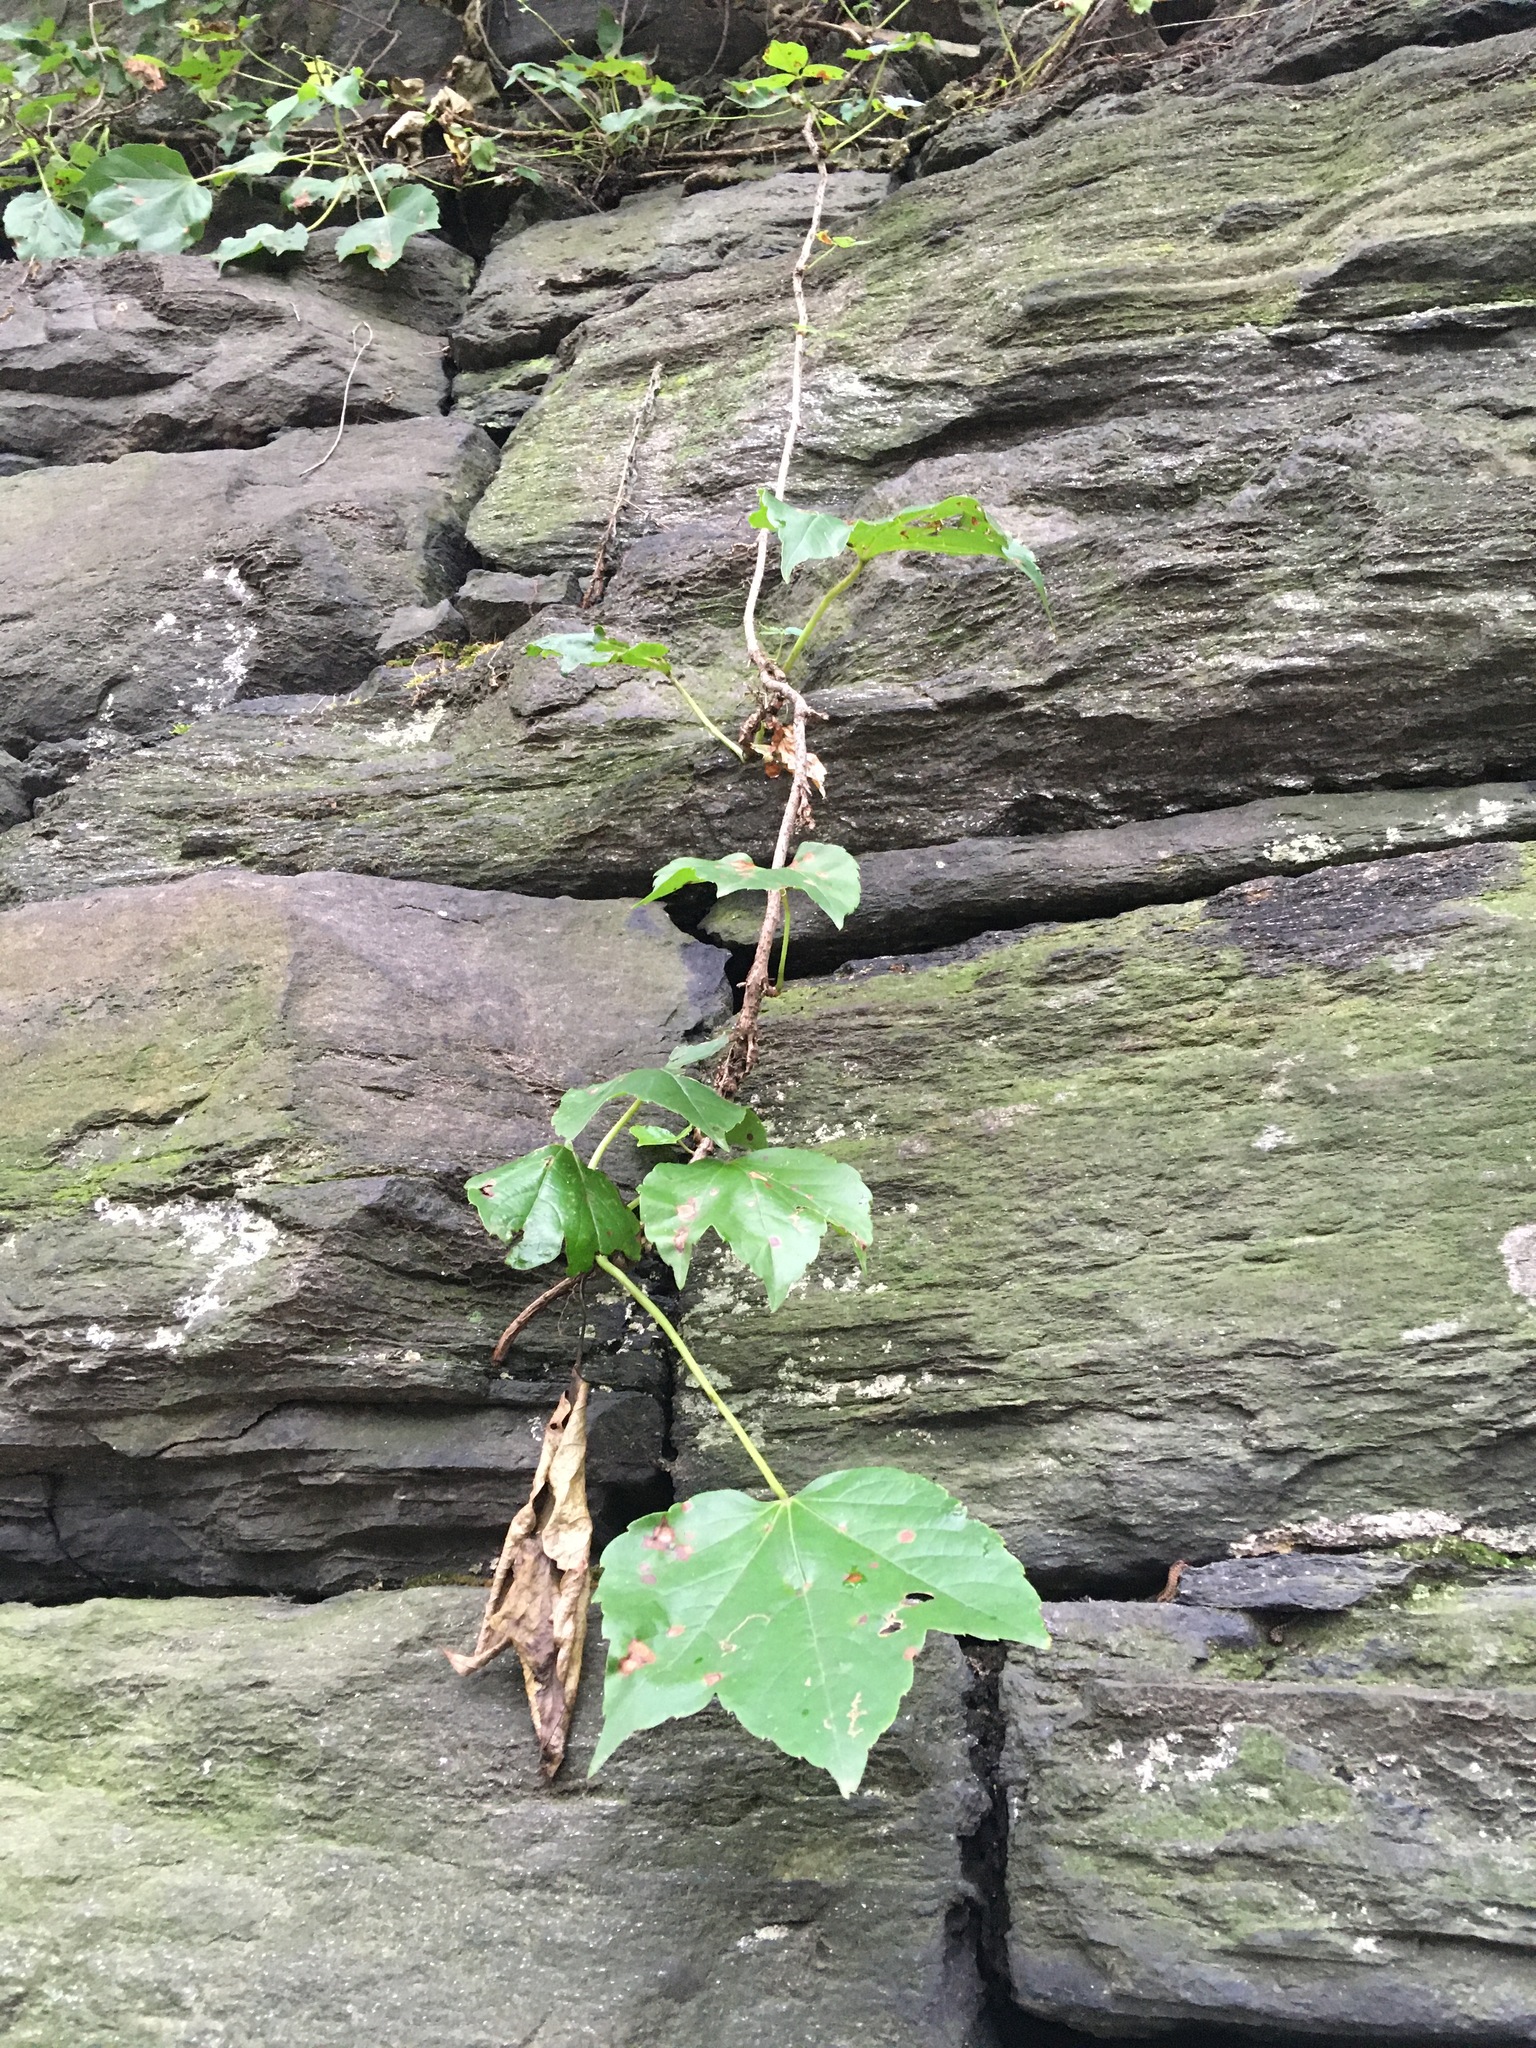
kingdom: Plantae
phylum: Tracheophyta
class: Magnoliopsida
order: Vitales
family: Vitaceae
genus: Parthenocissus
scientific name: Parthenocissus tricuspidata
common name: Boston ivy
